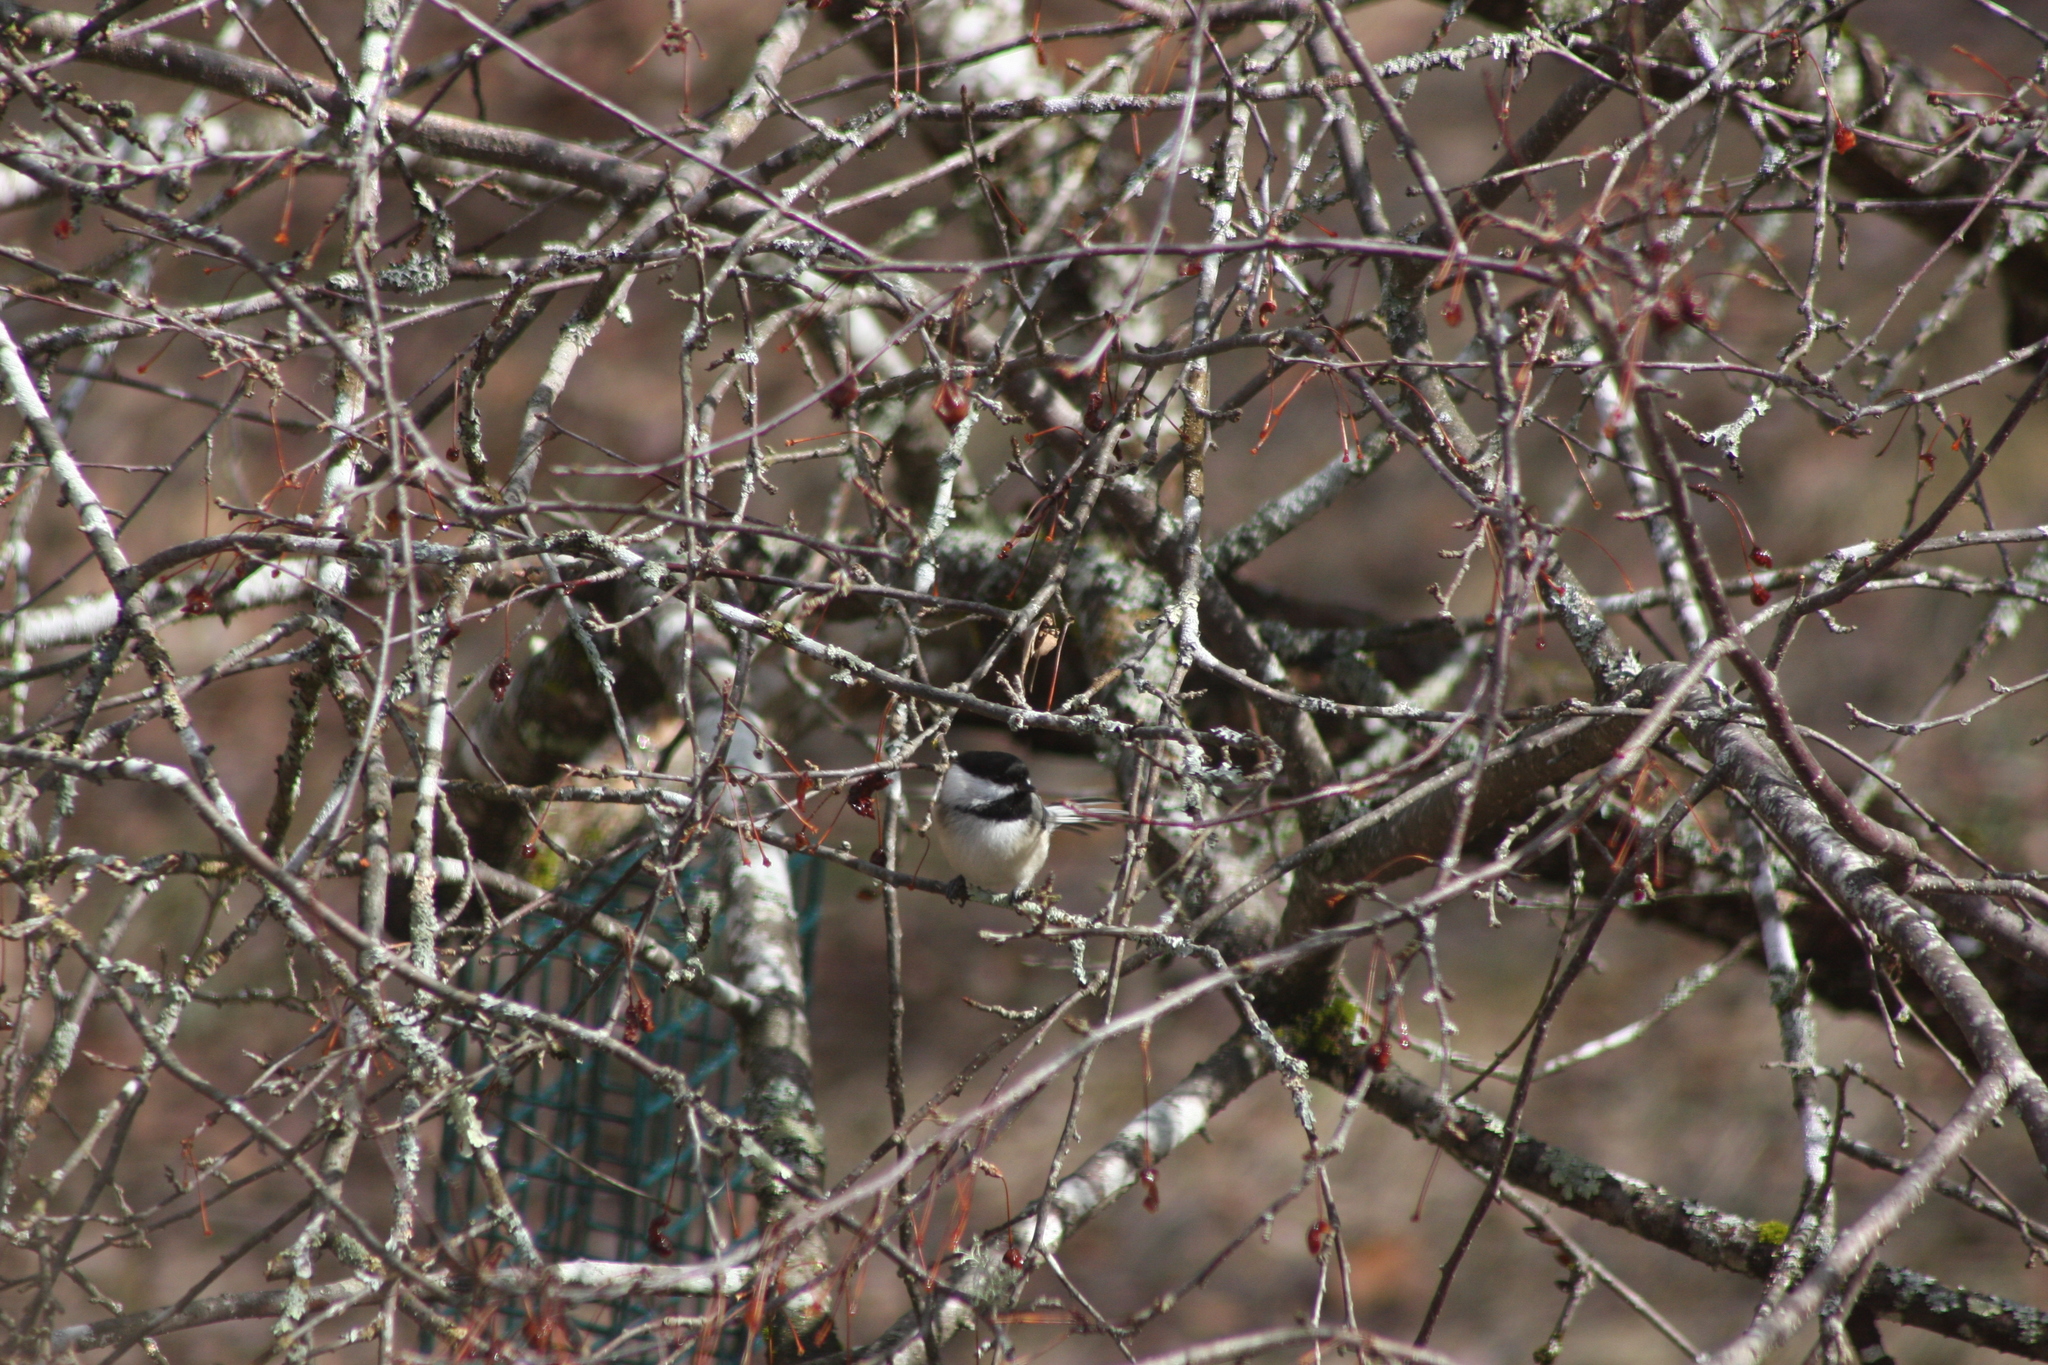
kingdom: Animalia
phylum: Chordata
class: Aves
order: Passeriformes
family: Paridae
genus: Poecile
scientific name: Poecile atricapillus
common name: Black-capped chickadee
